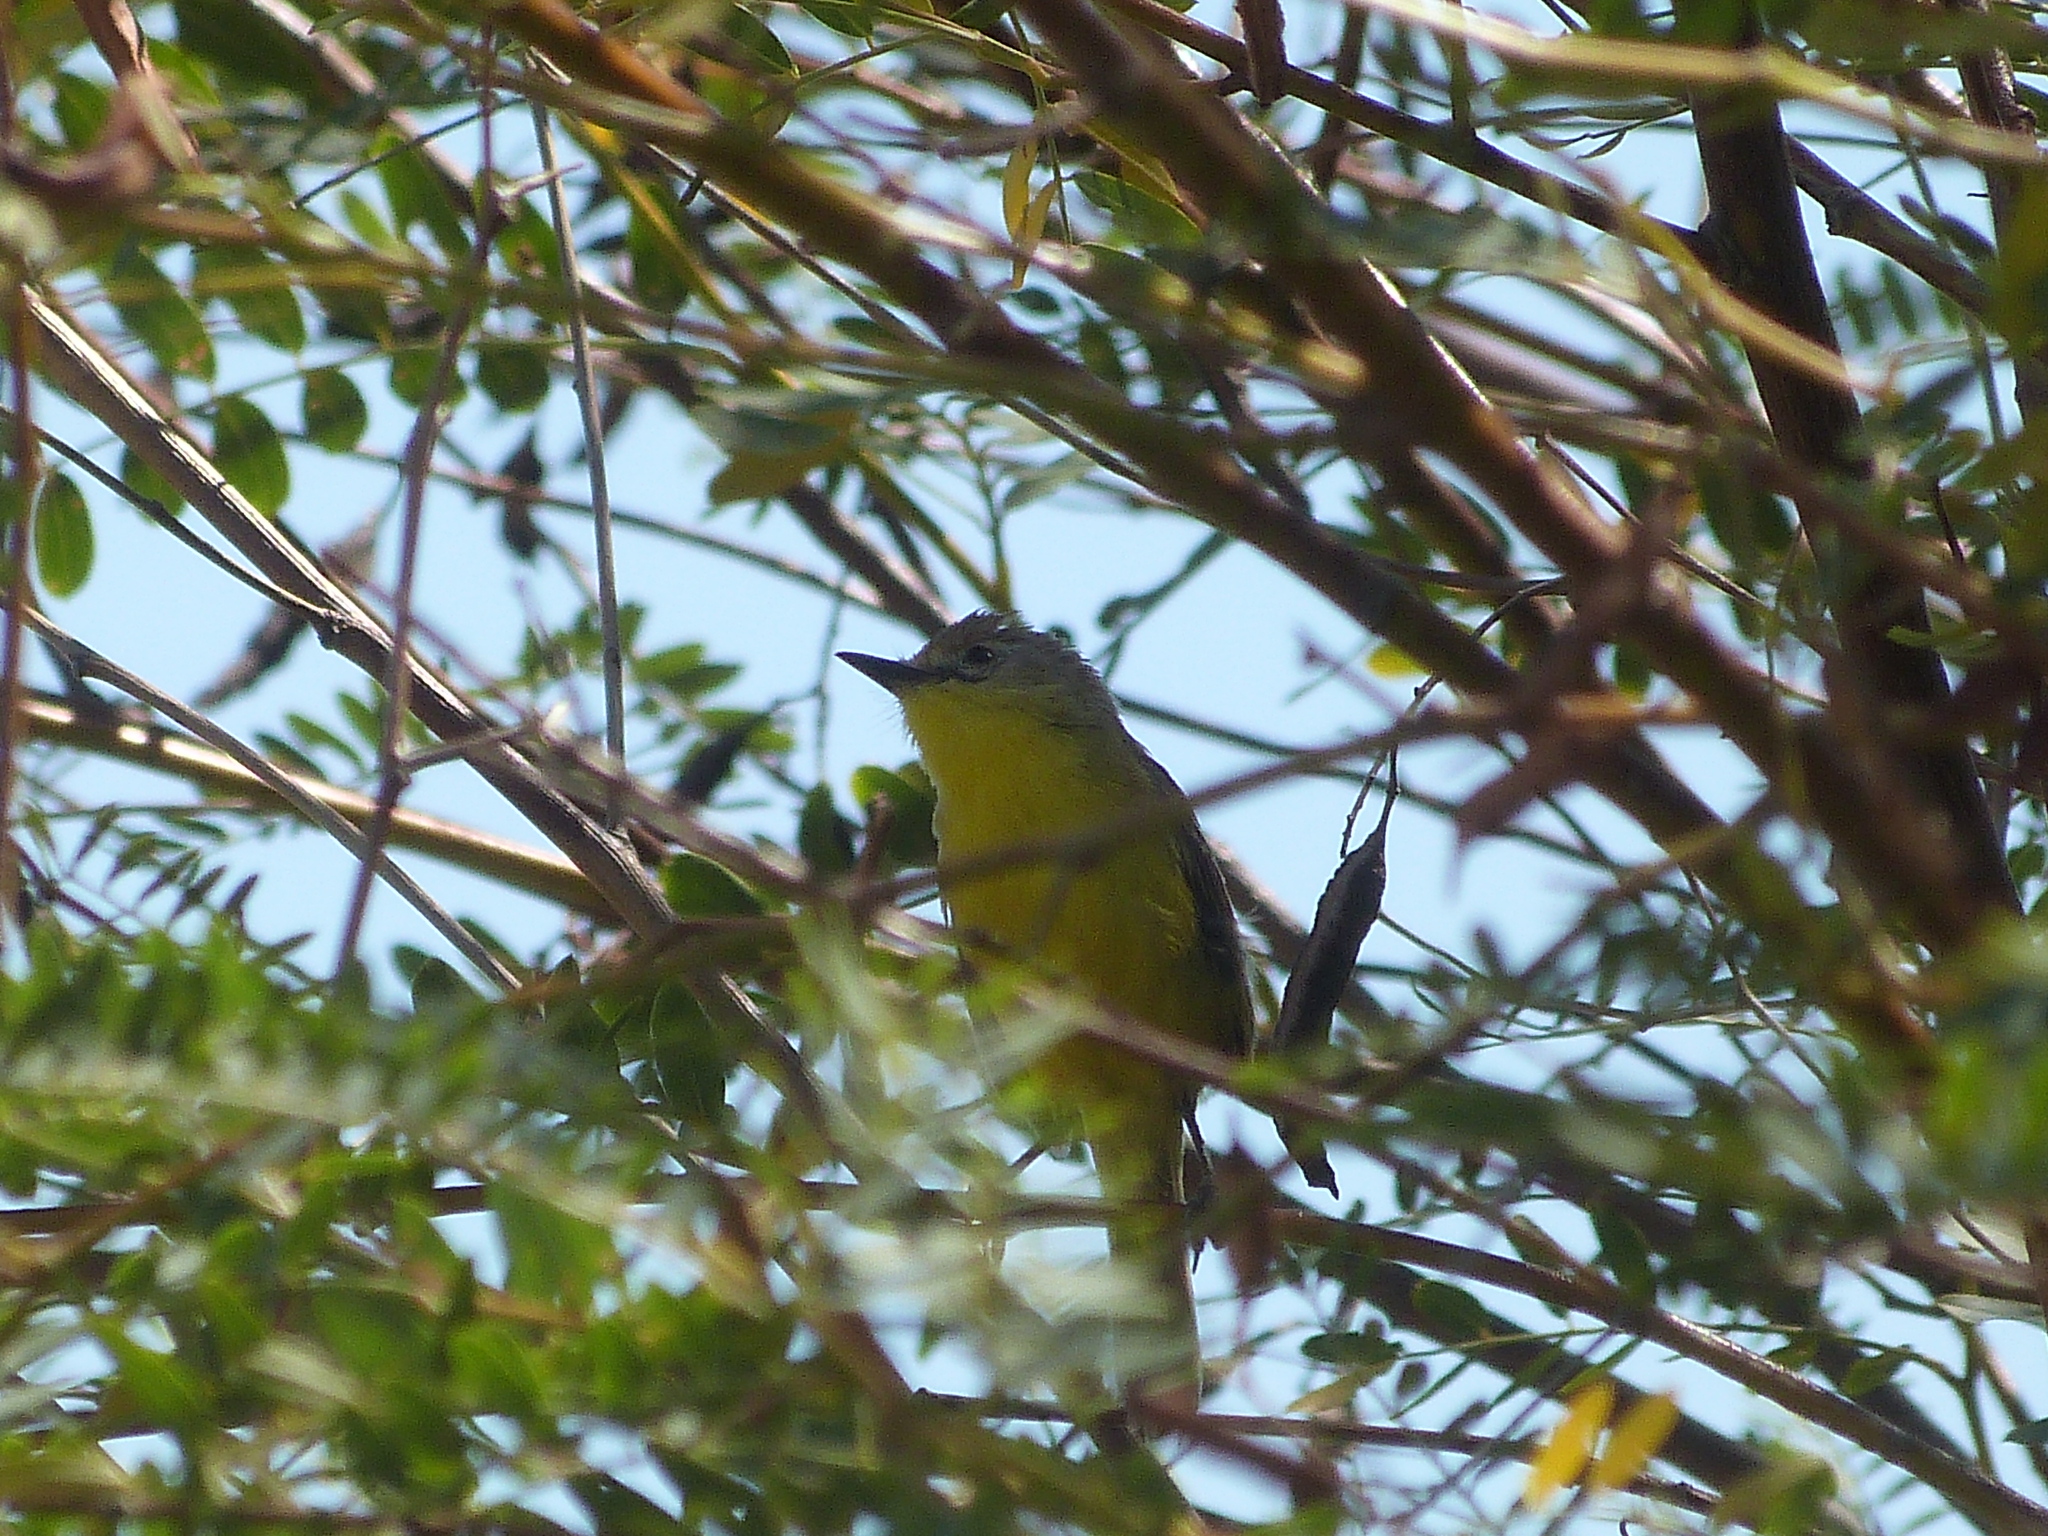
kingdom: Animalia
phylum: Chordata
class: Aves
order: Passeriformes
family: Tyrannidae
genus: Pseudocolopteryx
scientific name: Pseudocolopteryx dinelliana
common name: Dinelli's doradito
